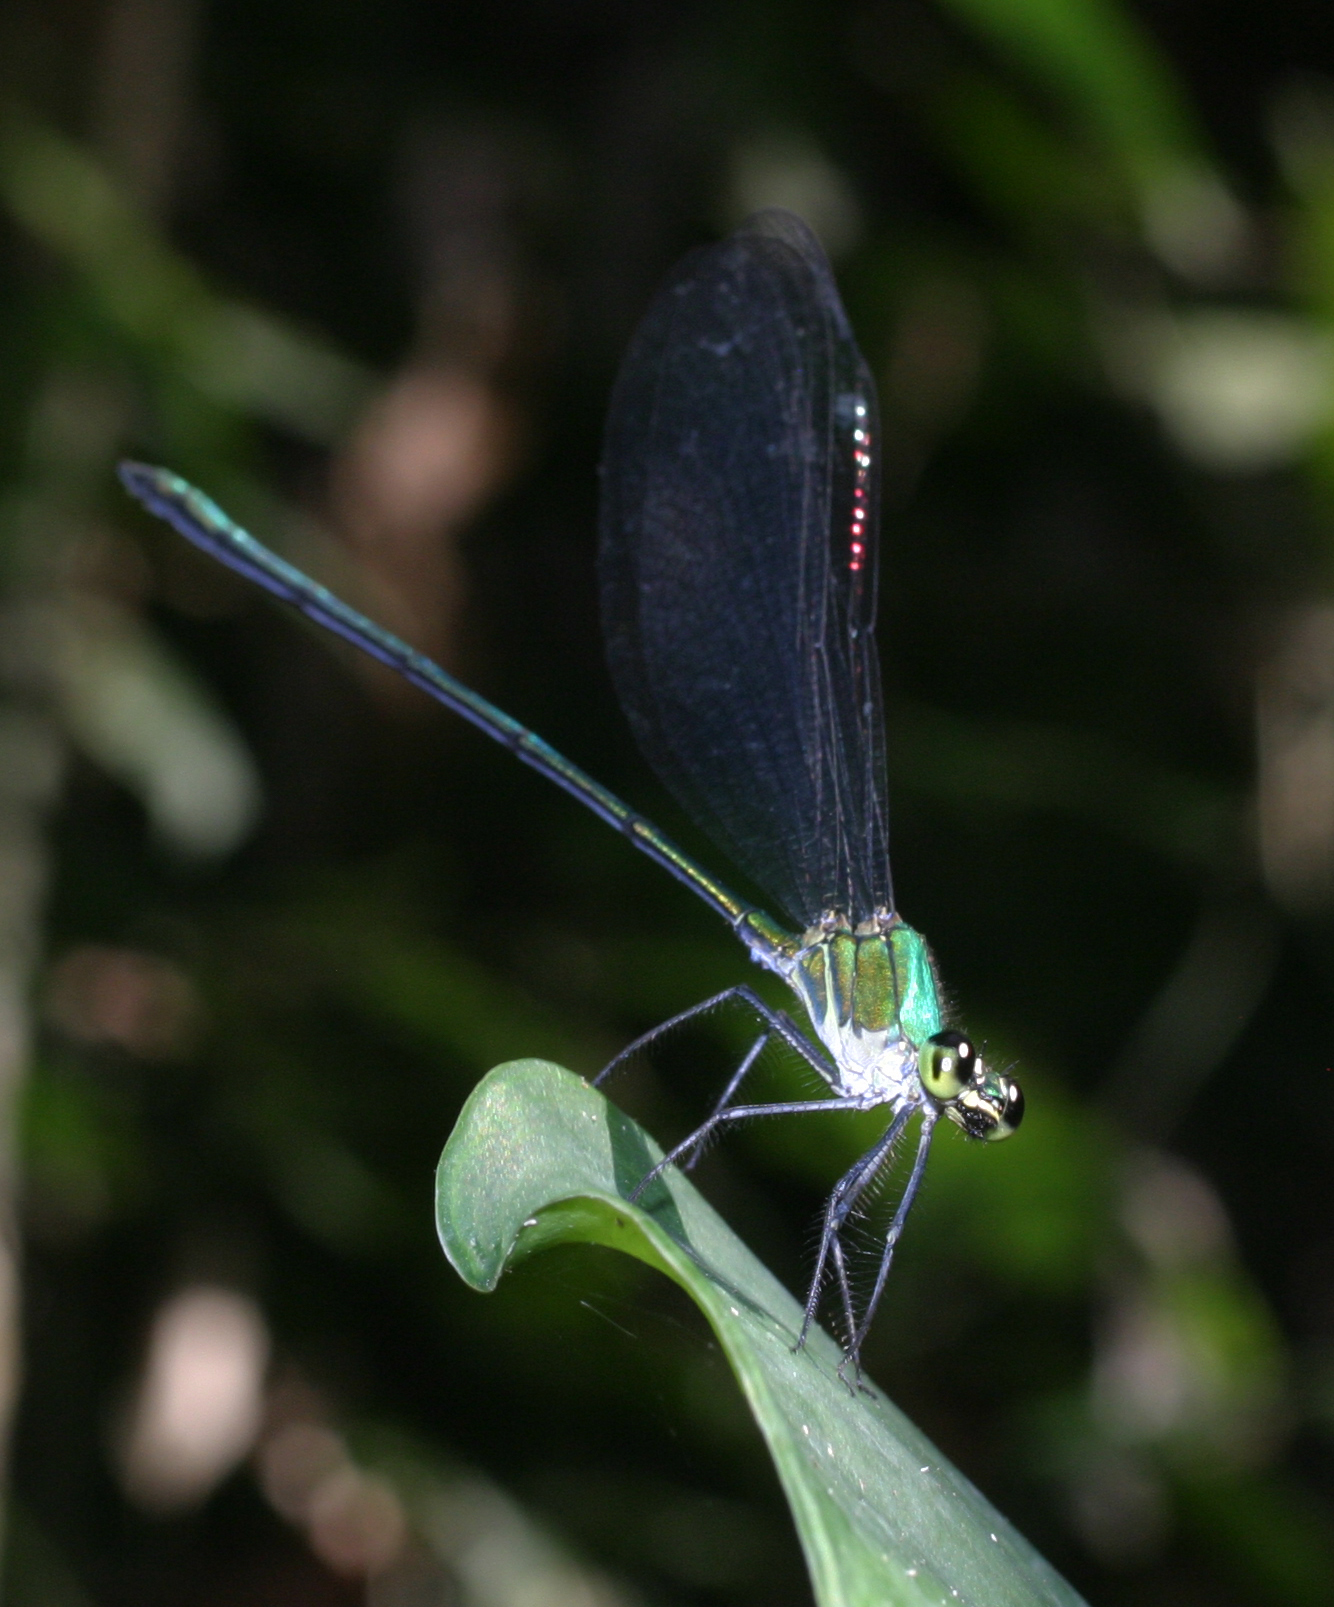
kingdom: Animalia
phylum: Arthropoda
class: Insecta
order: Odonata
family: Calopterygidae
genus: Vestalis
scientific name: Vestalis anne
